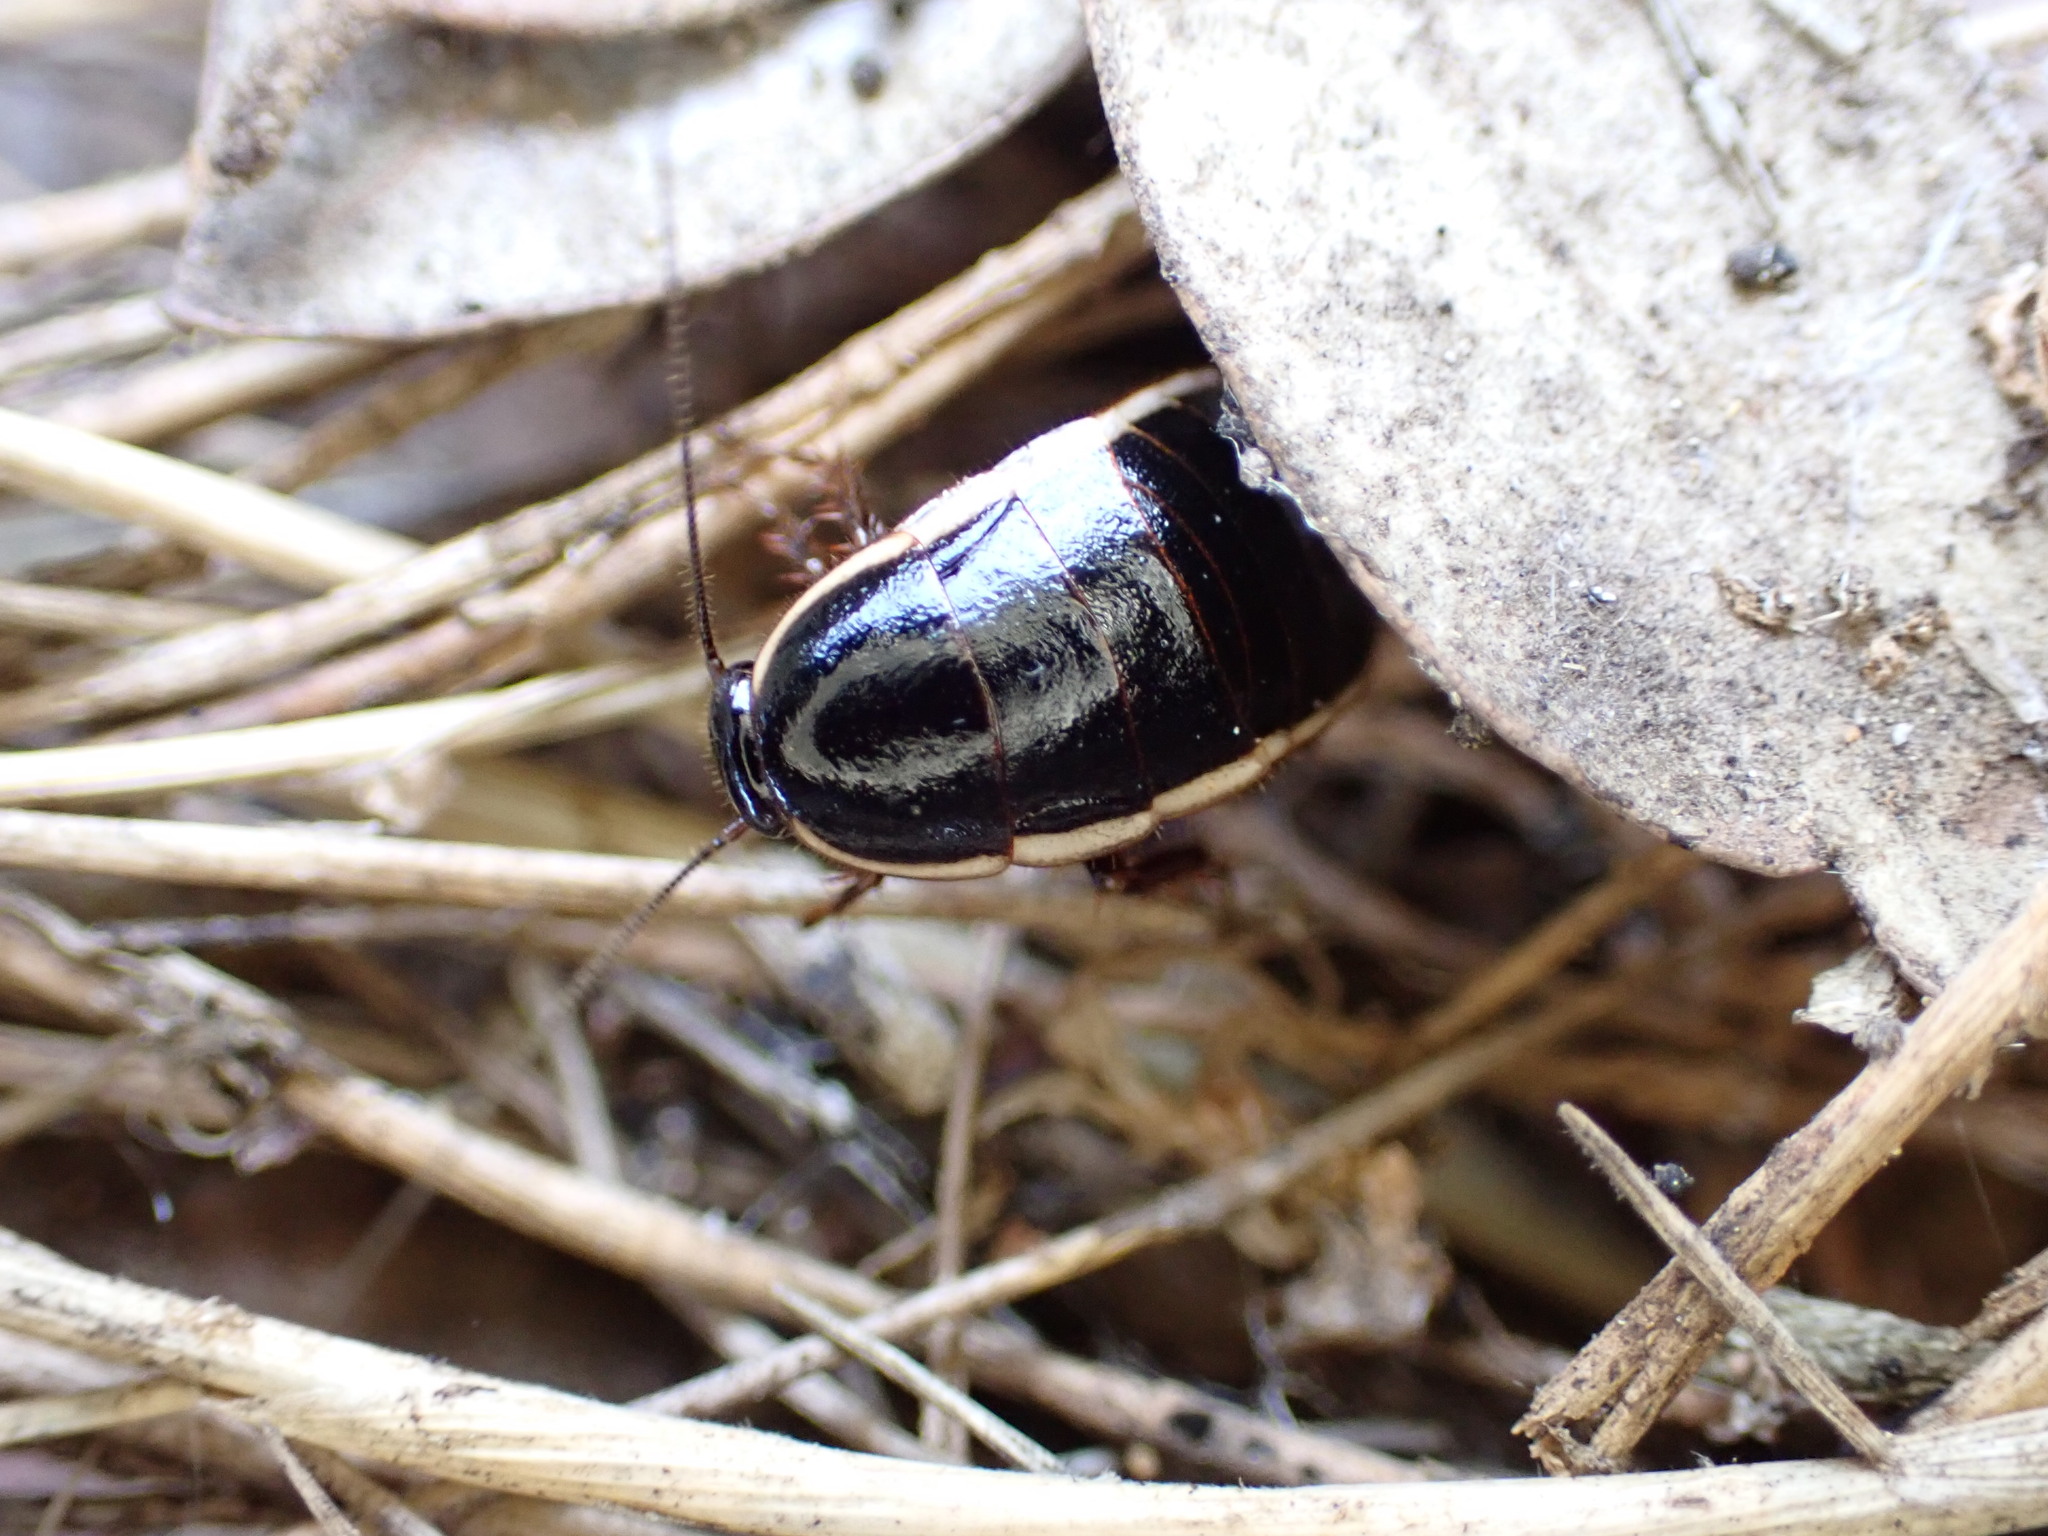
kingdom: Animalia
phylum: Arthropoda
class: Insecta
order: Blattodea
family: Ectobiidae
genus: Loboptera
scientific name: Loboptera decipiens
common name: Lobe-winged cockroach
